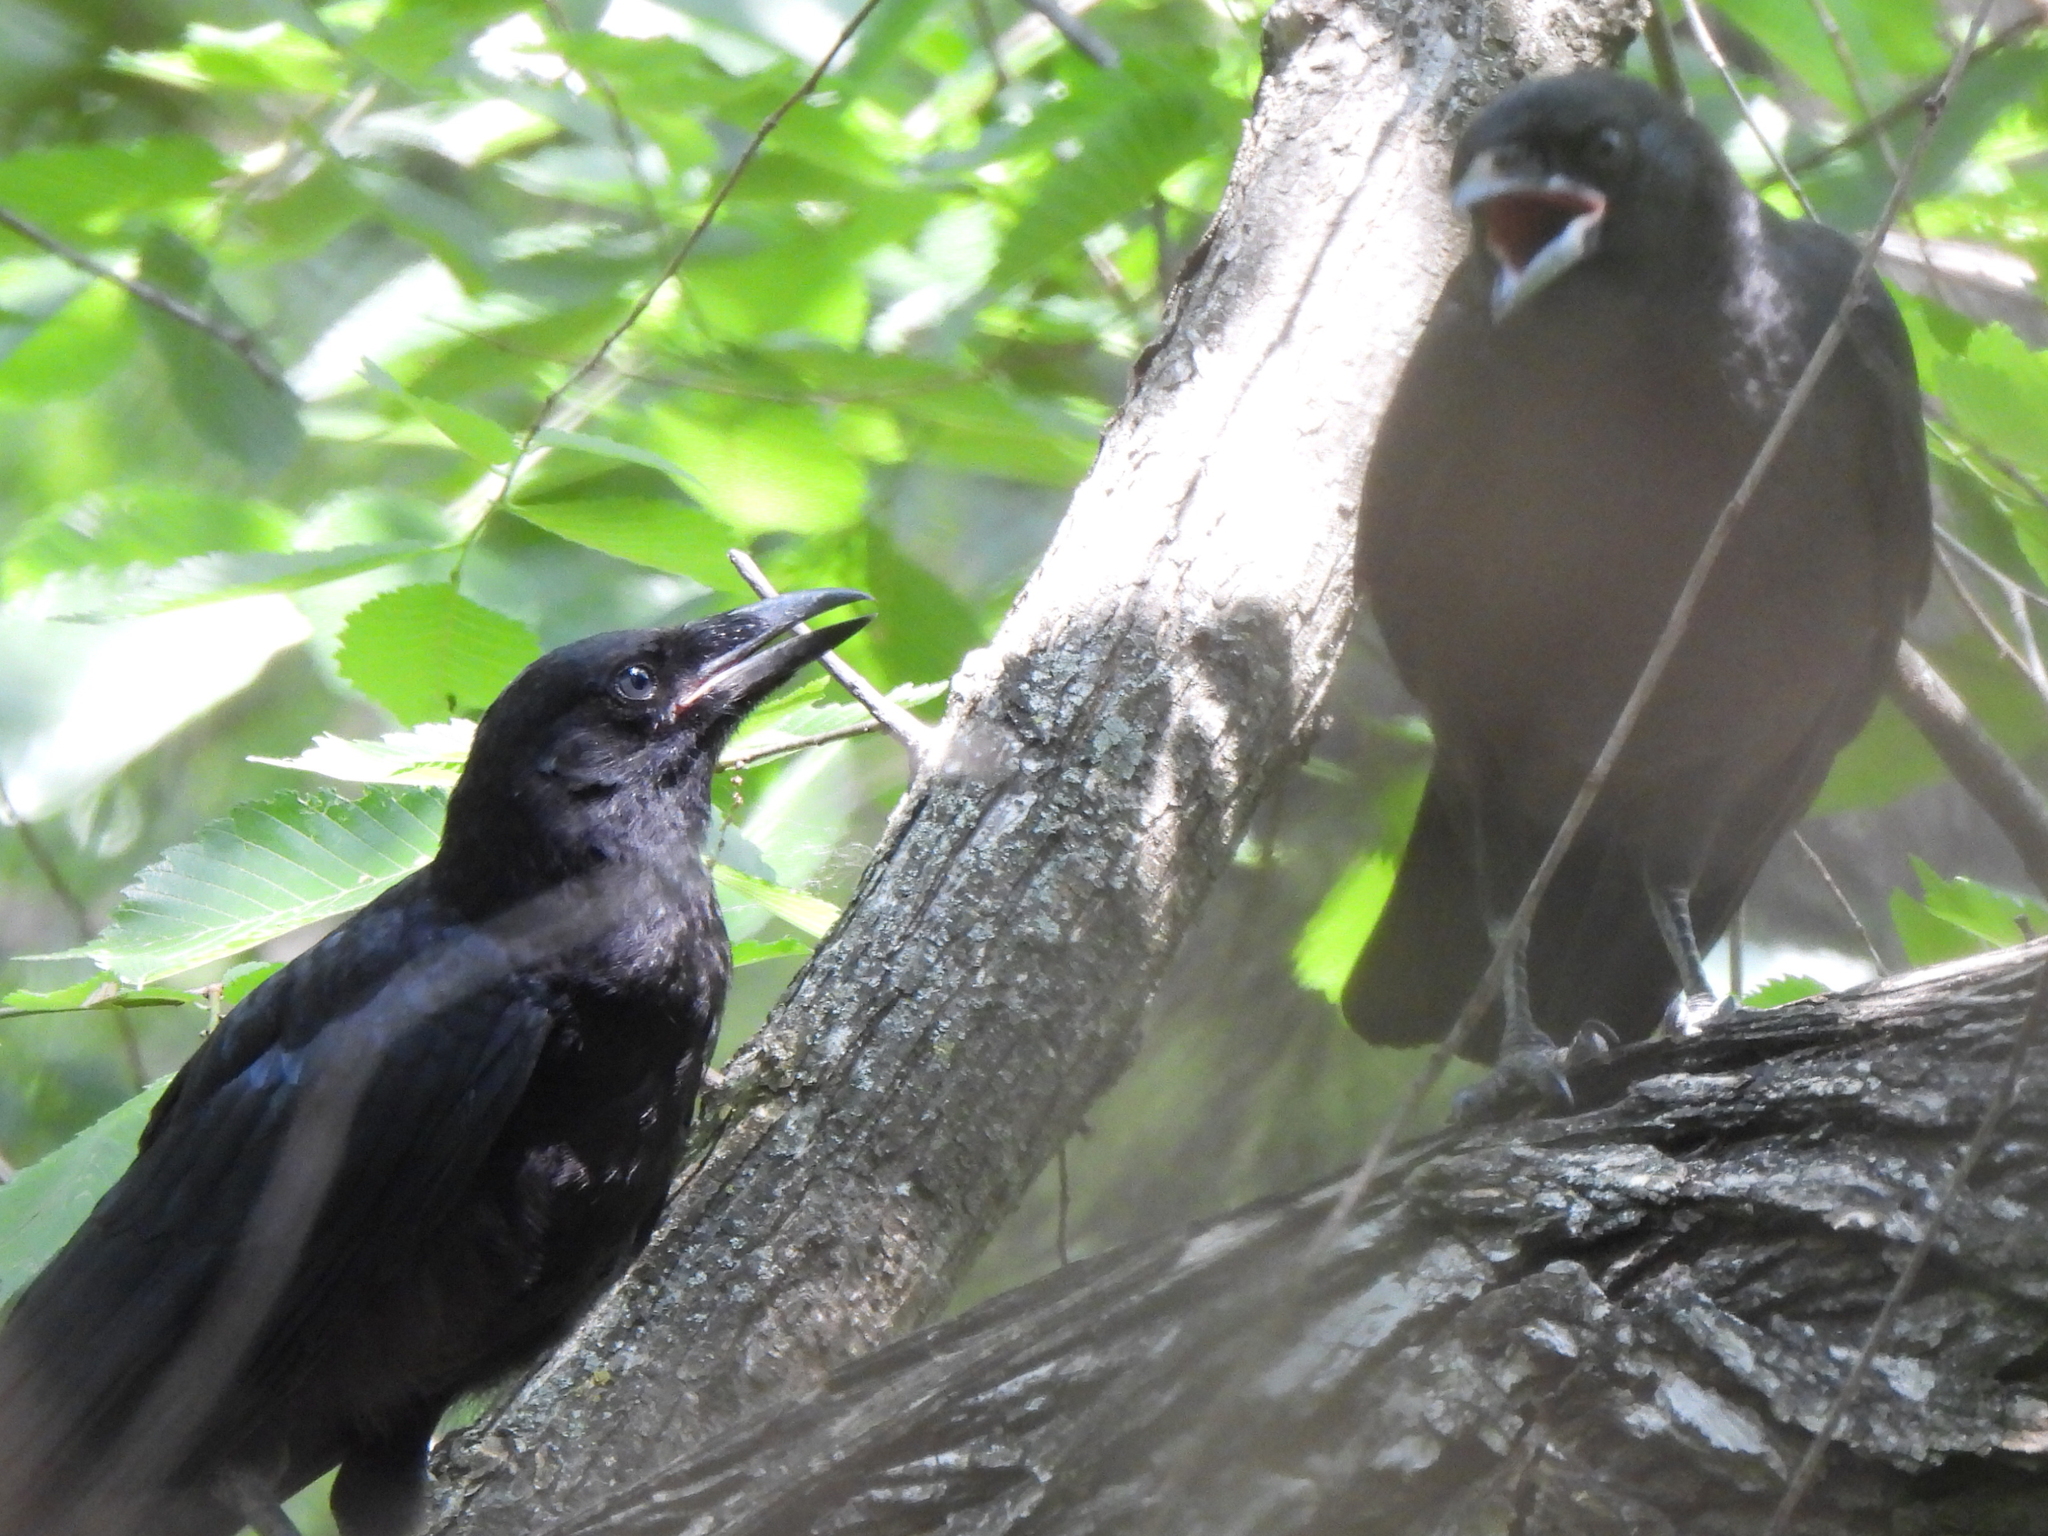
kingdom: Animalia
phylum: Chordata
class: Aves
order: Passeriformes
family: Corvidae
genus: Corvus
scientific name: Corvus brachyrhynchos
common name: American crow
